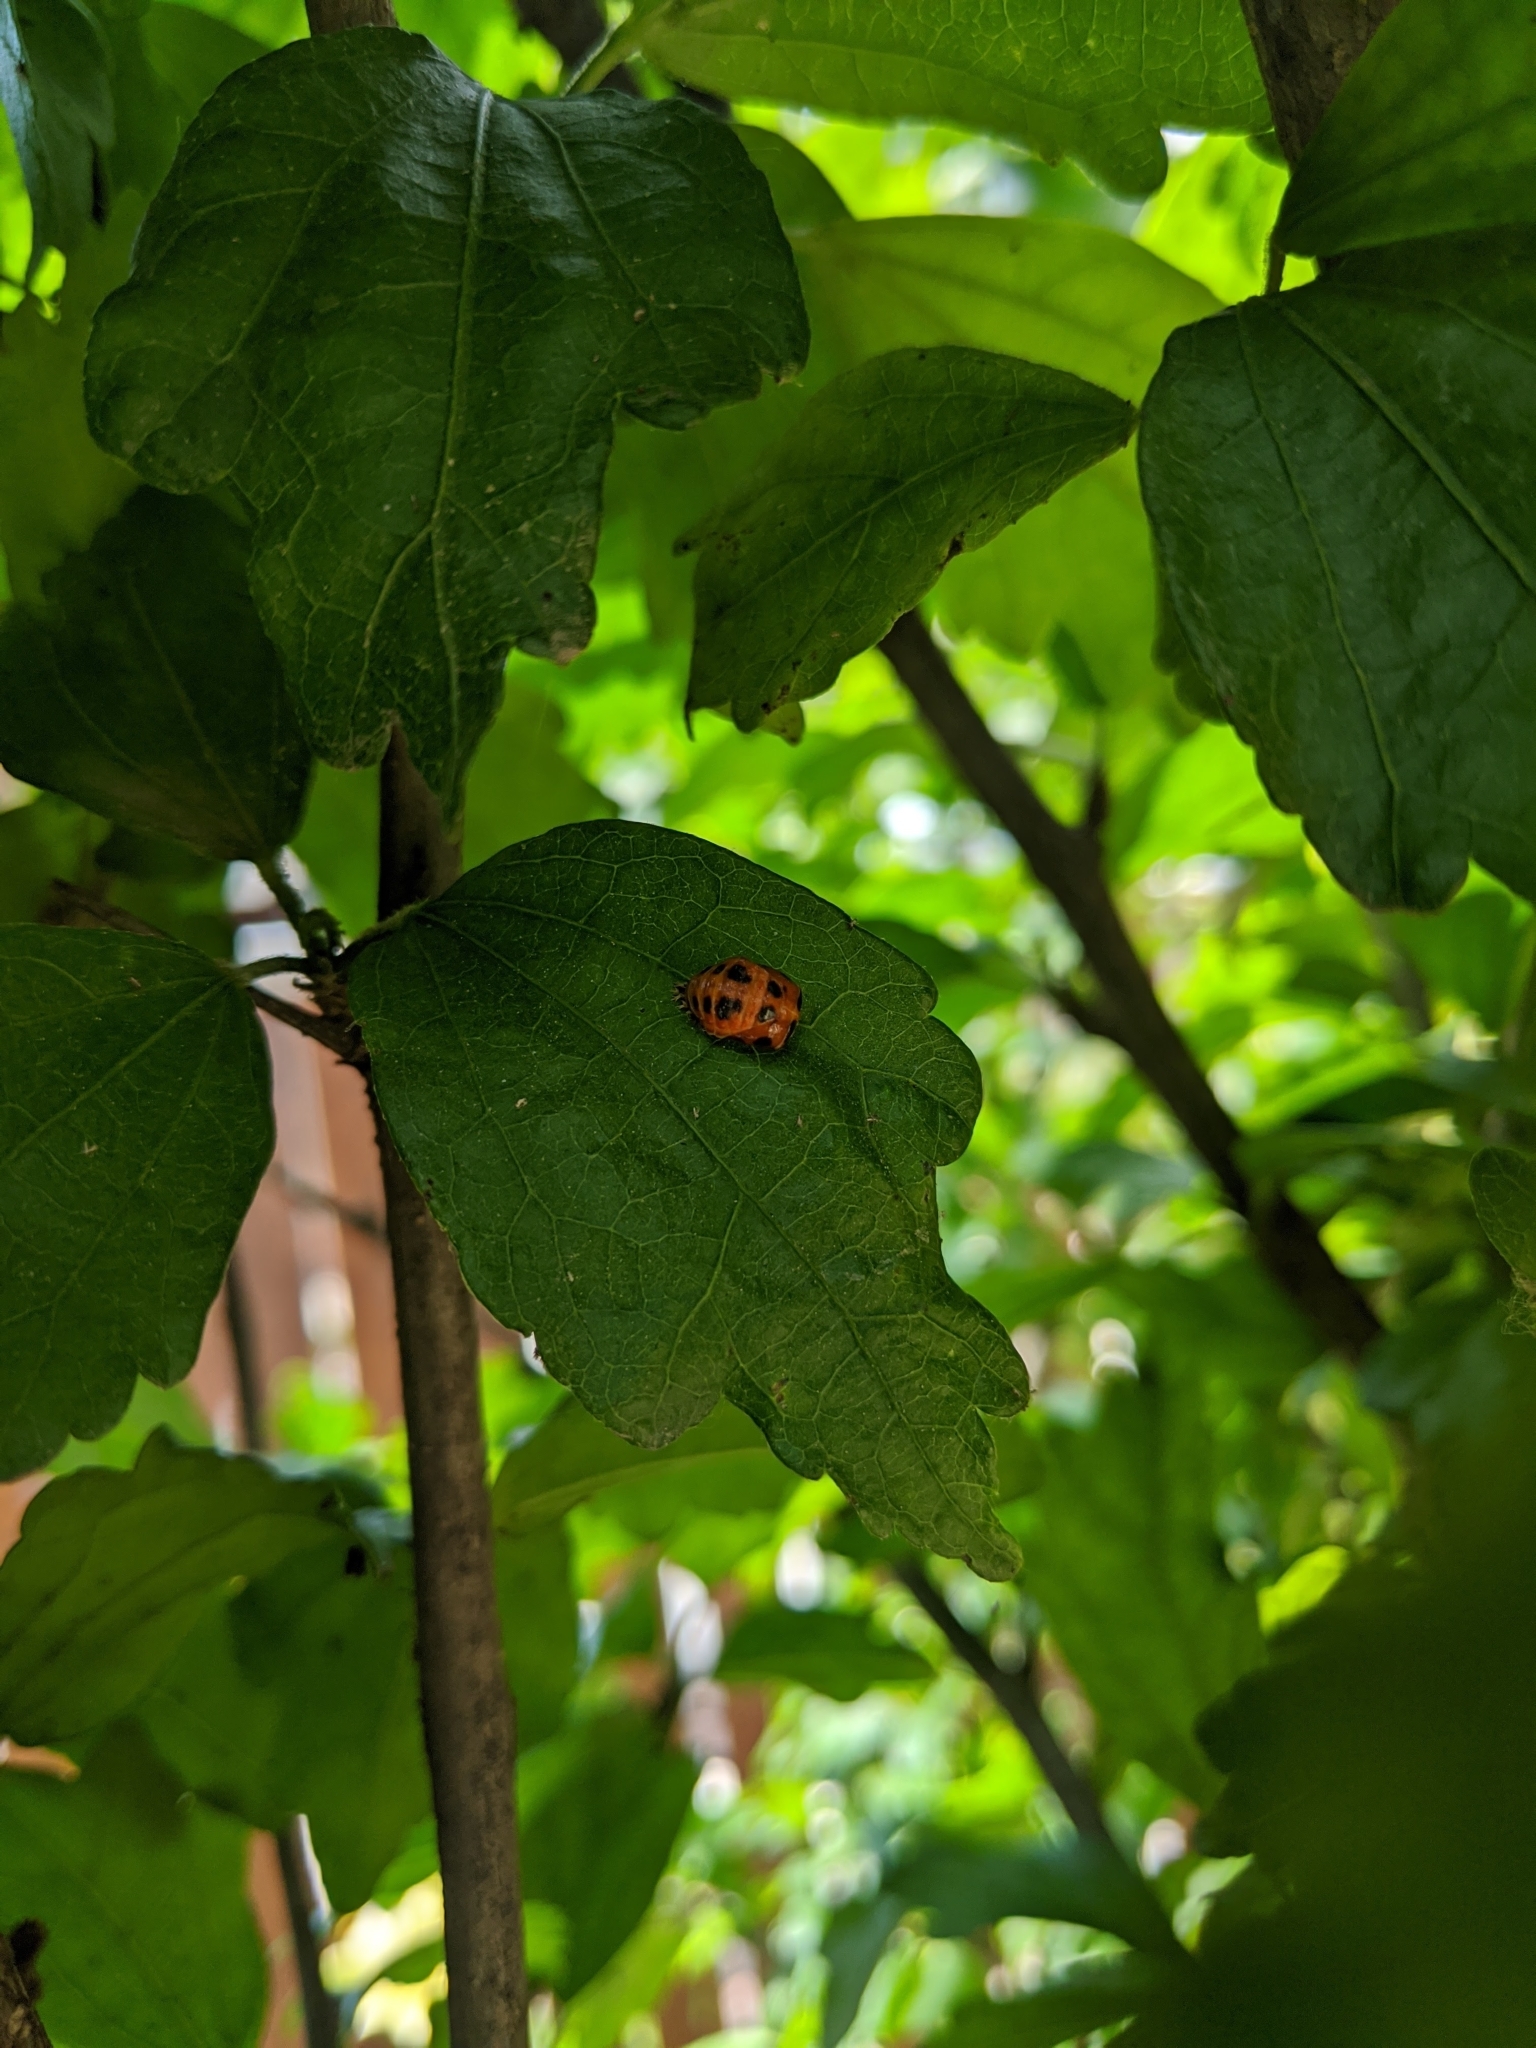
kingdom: Animalia
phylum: Arthropoda
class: Insecta
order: Coleoptera
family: Coccinellidae
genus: Harmonia
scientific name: Harmonia axyridis
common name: Harlequin ladybird
